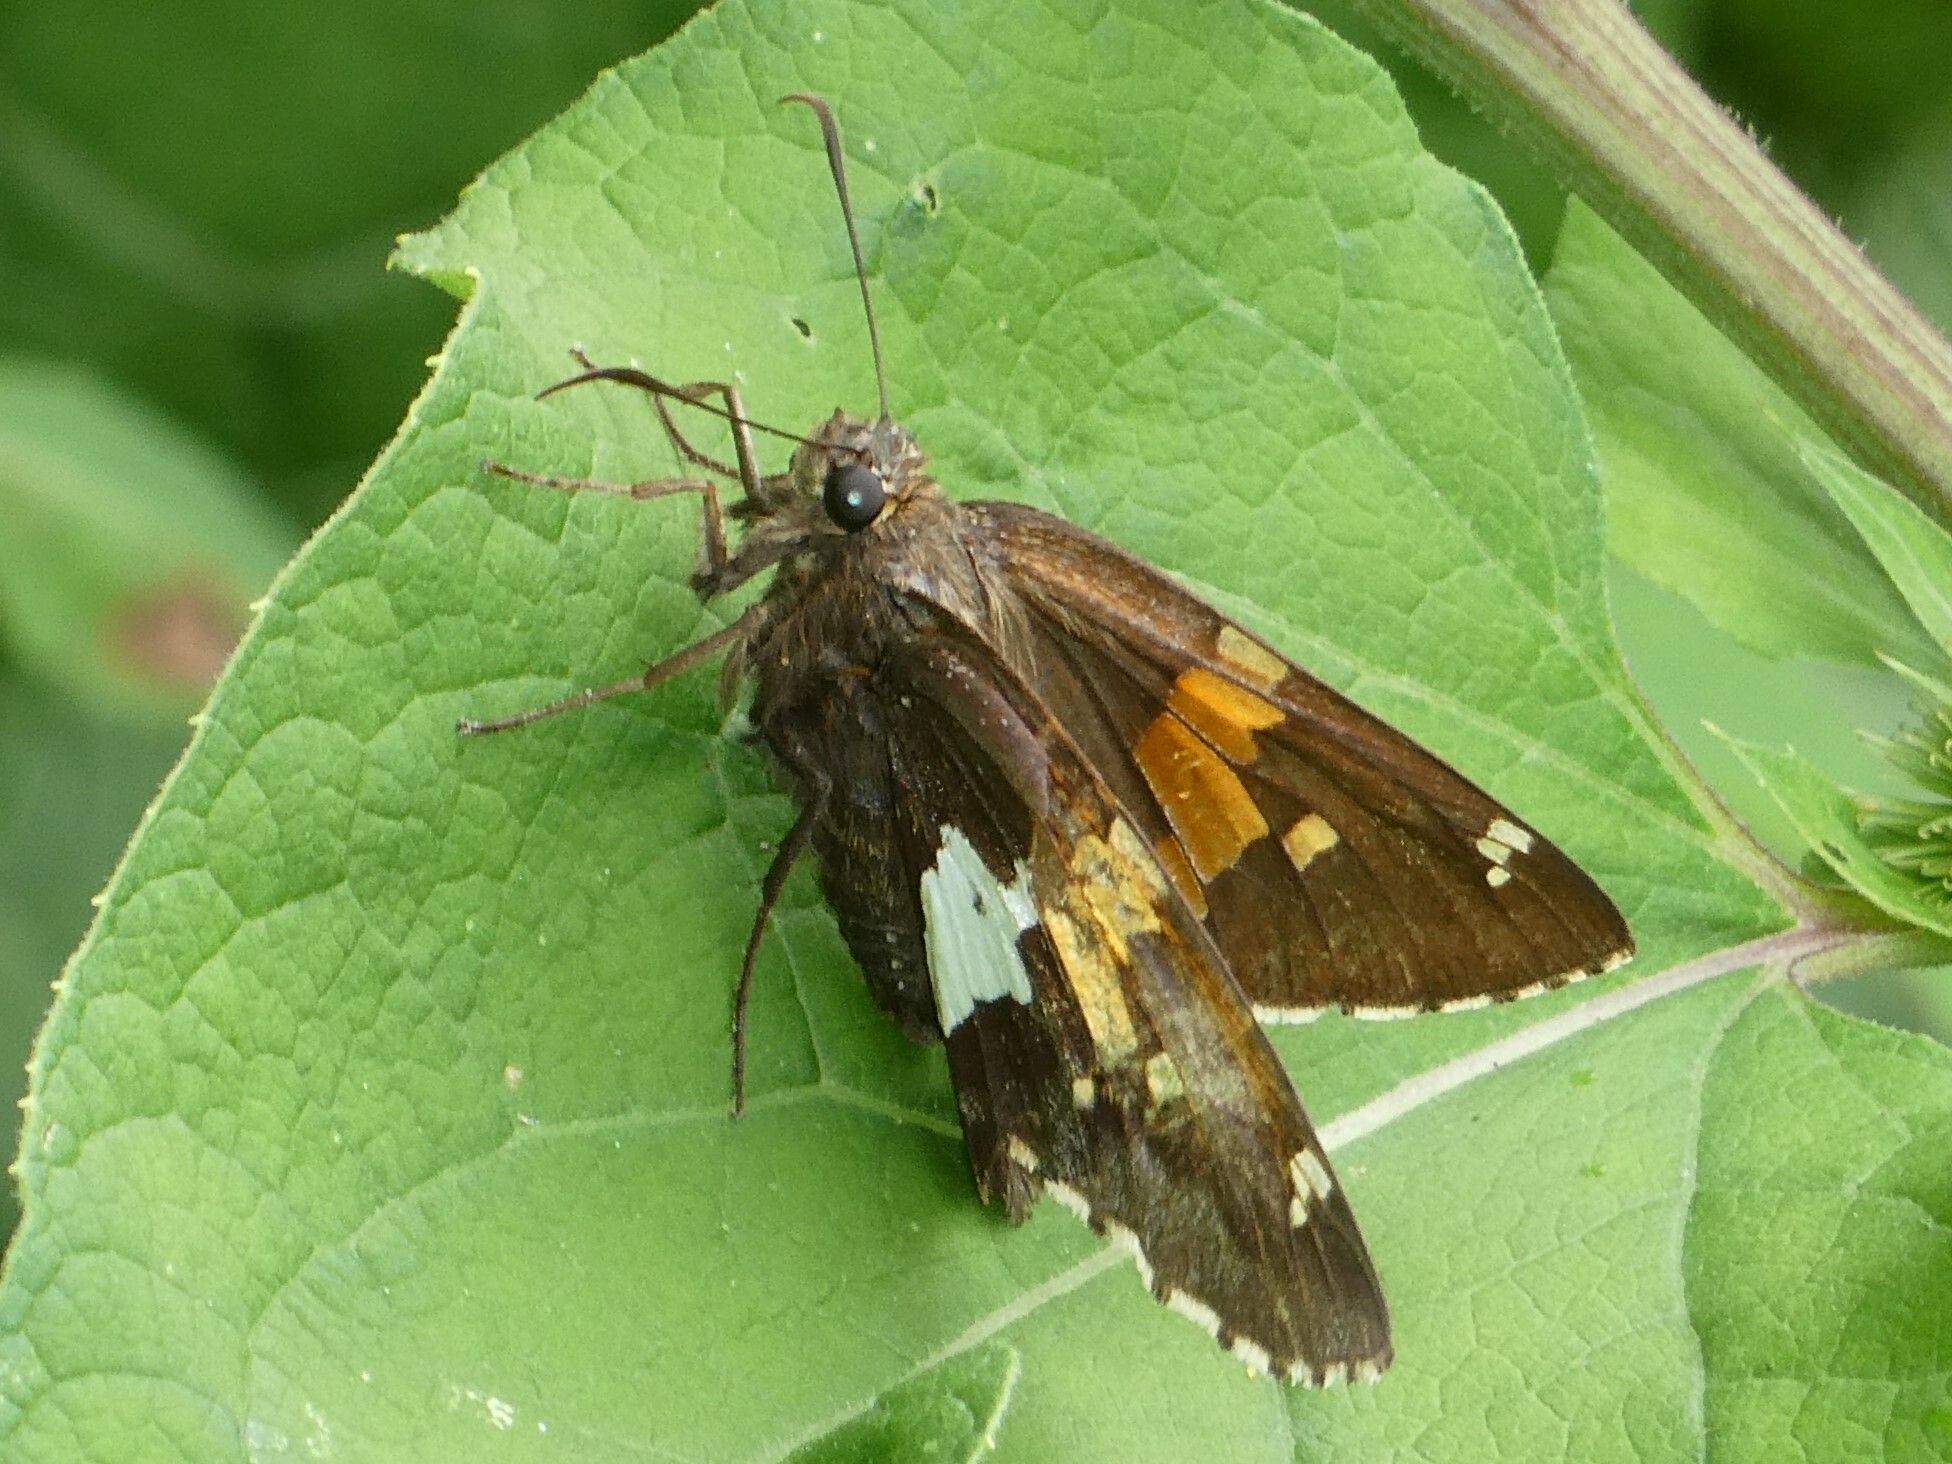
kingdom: Animalia
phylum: Arthropoda
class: Insecta
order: Lepidoptera
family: Hesperiidae
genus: Epargyreus
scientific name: Epargyreus clarus
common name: Silver-spotted skipper
